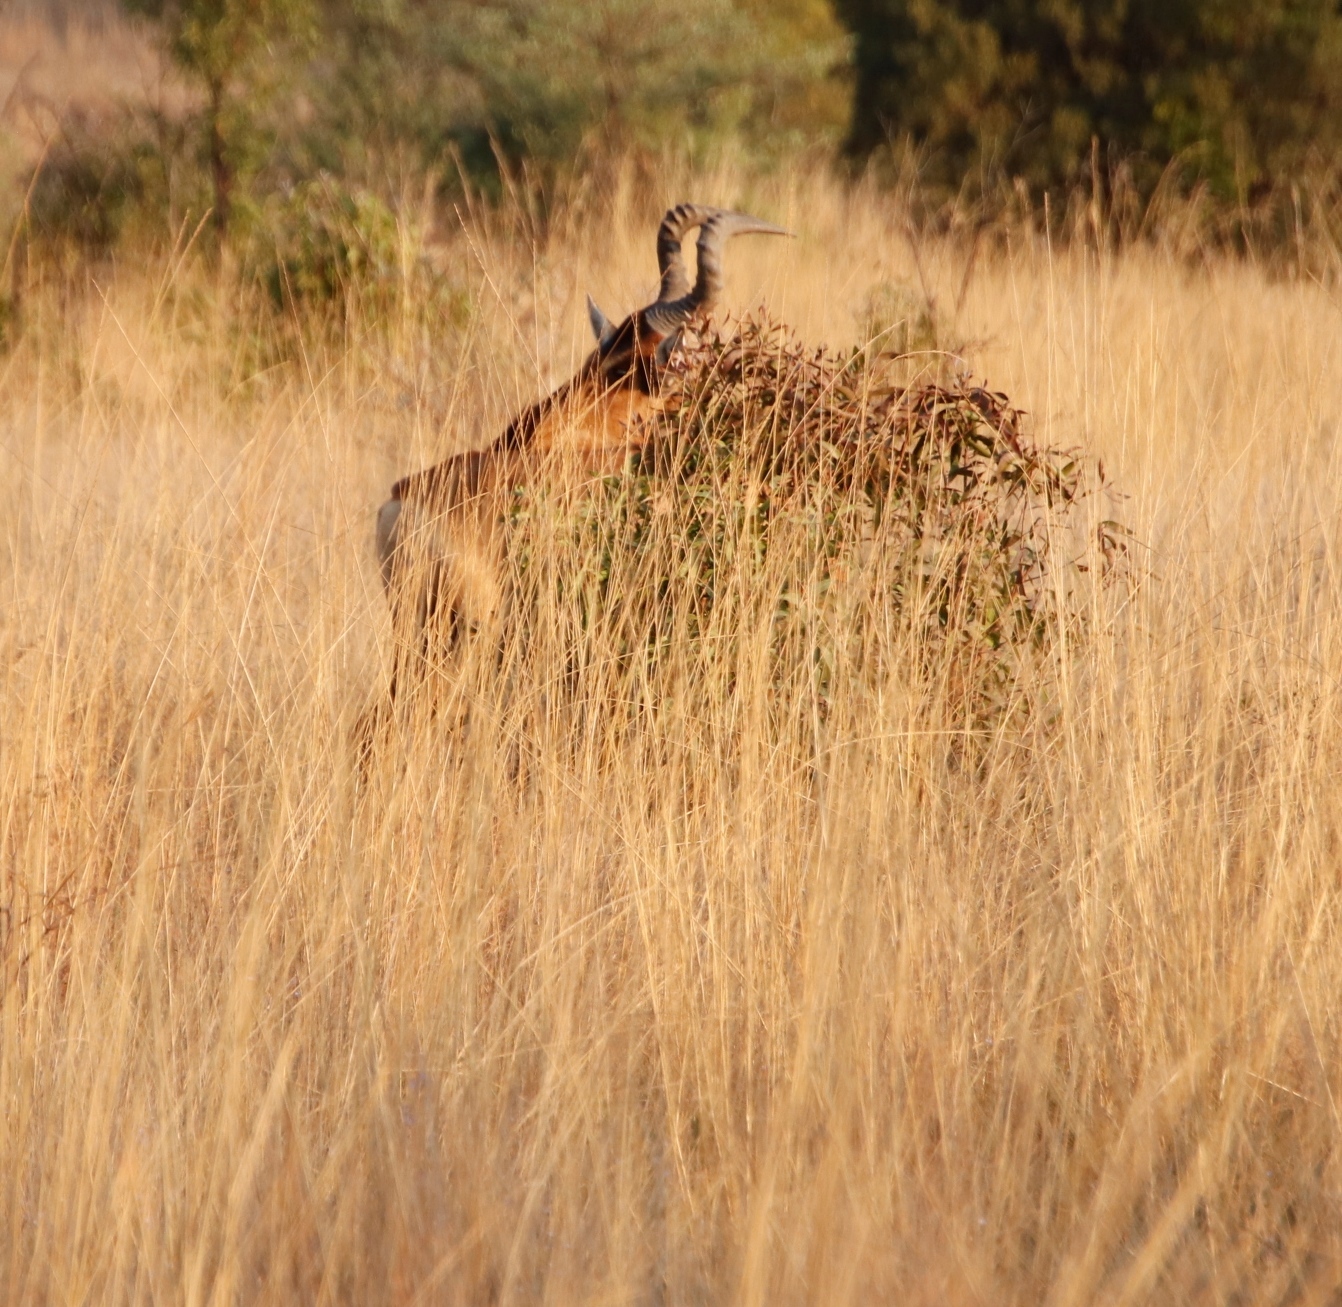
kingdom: Animalia
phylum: Chordata
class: Mammalia
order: Artiodactyla
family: Bovidae
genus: Alcelaphus
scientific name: Alcelaphus caama
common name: Red hartebeest
